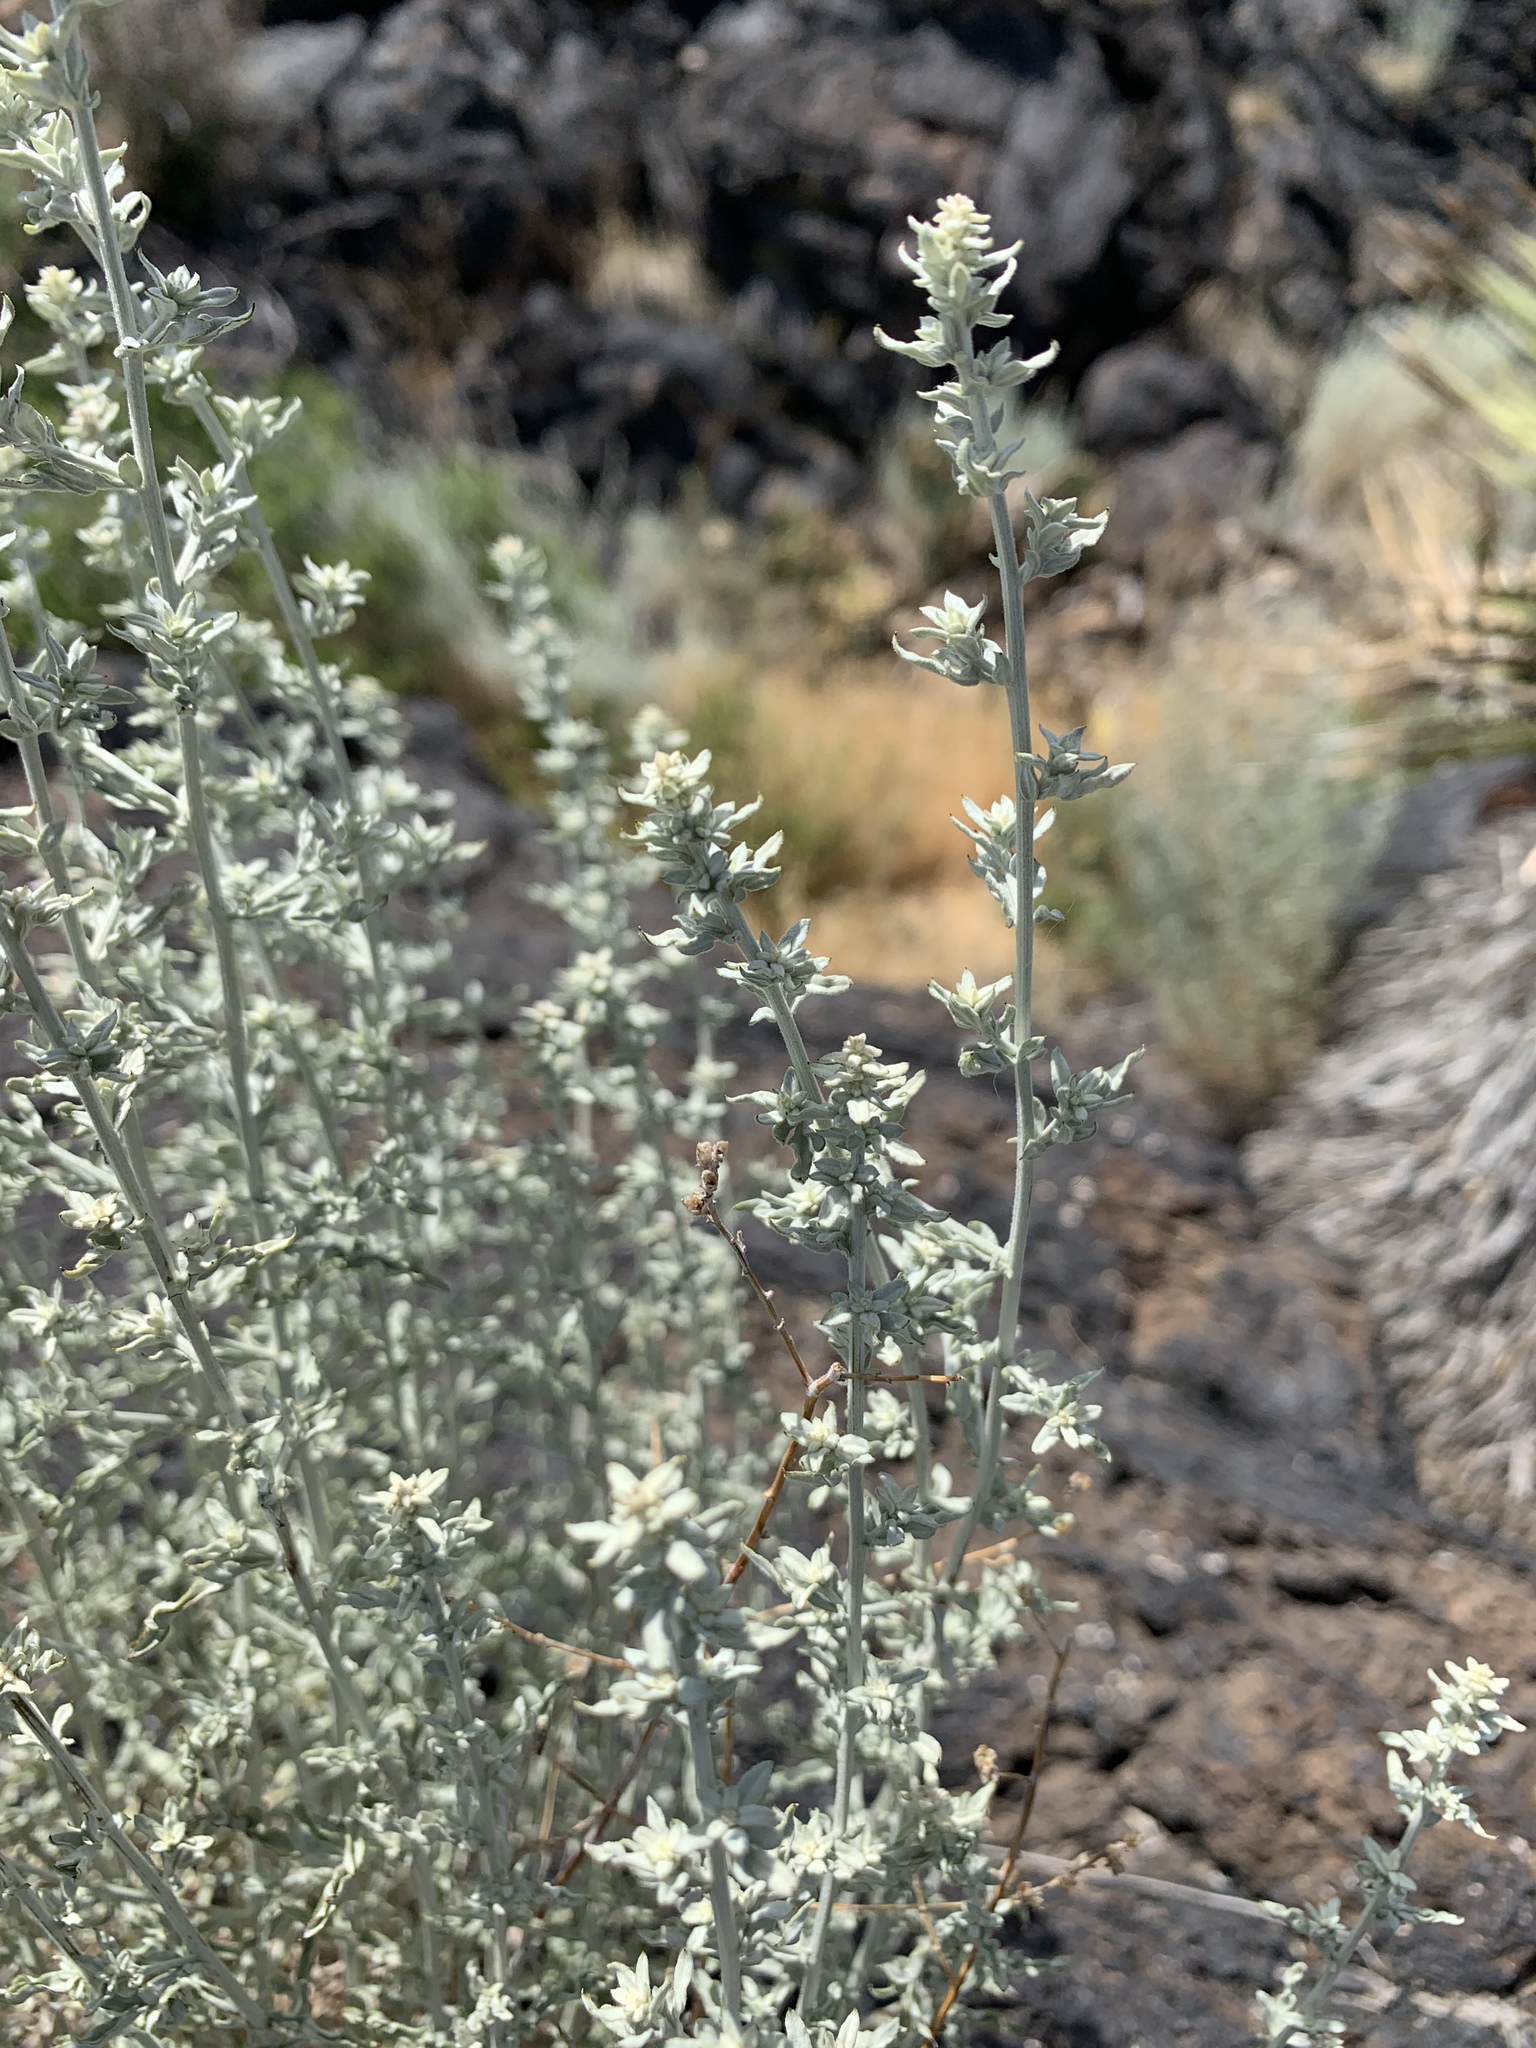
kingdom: Plantae
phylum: Tracheophyta
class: Magnoliopsida
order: Asterales
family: Asteraceae
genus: Artemisia
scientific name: Artemisia ludoviciana
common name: Western mugwort
